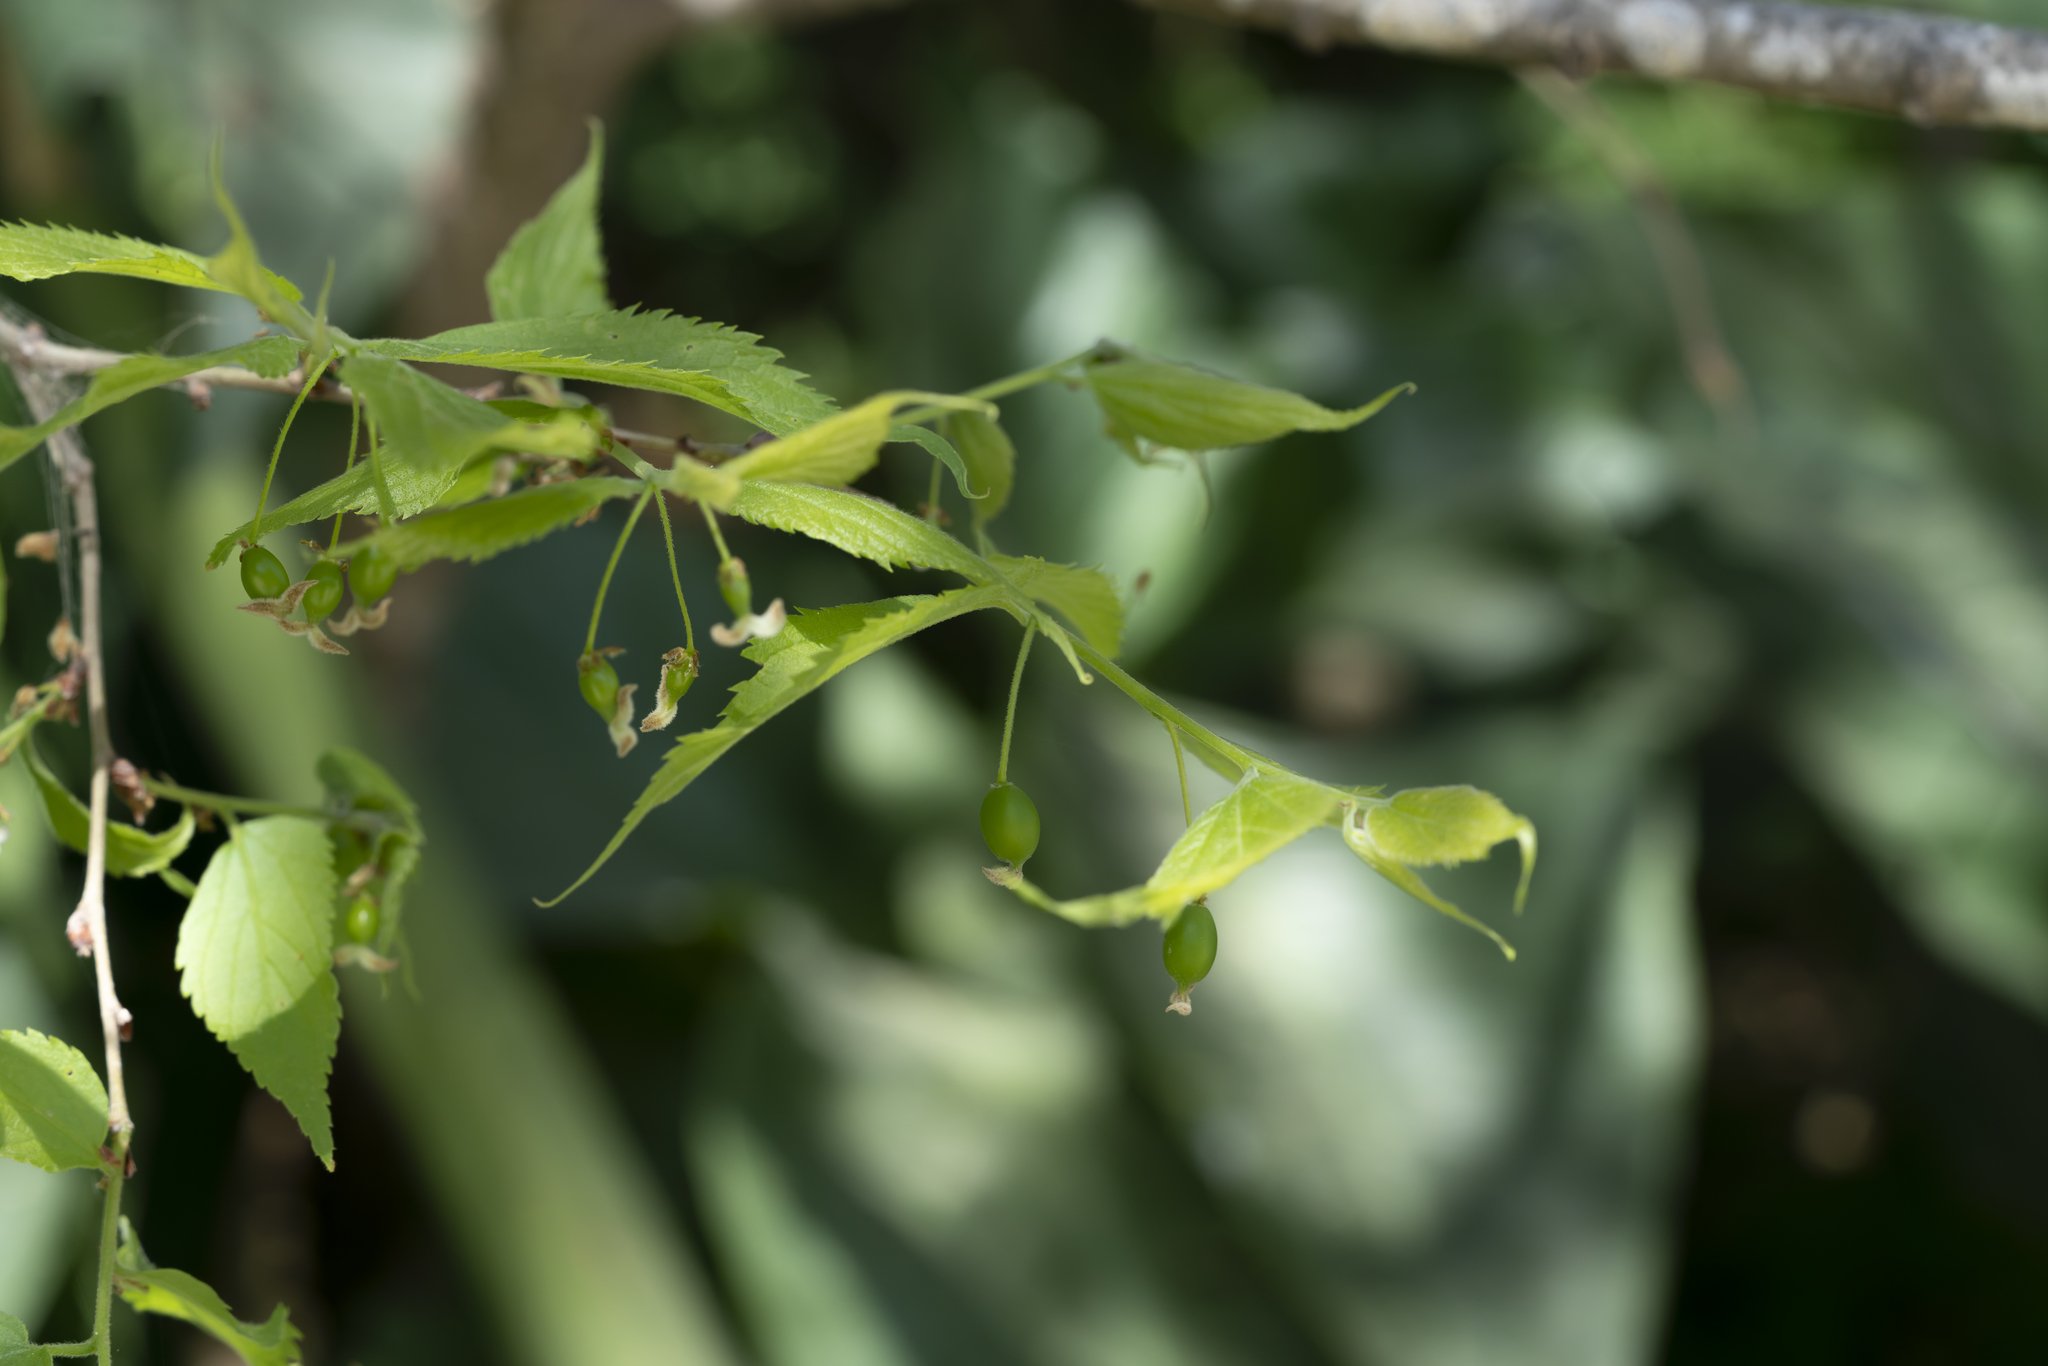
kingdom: Plantae
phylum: Tracheophyta
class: Magnoliopsida
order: Rosales
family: Cannabaceae
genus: Celtis
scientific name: Celtis australis
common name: European hackberry
